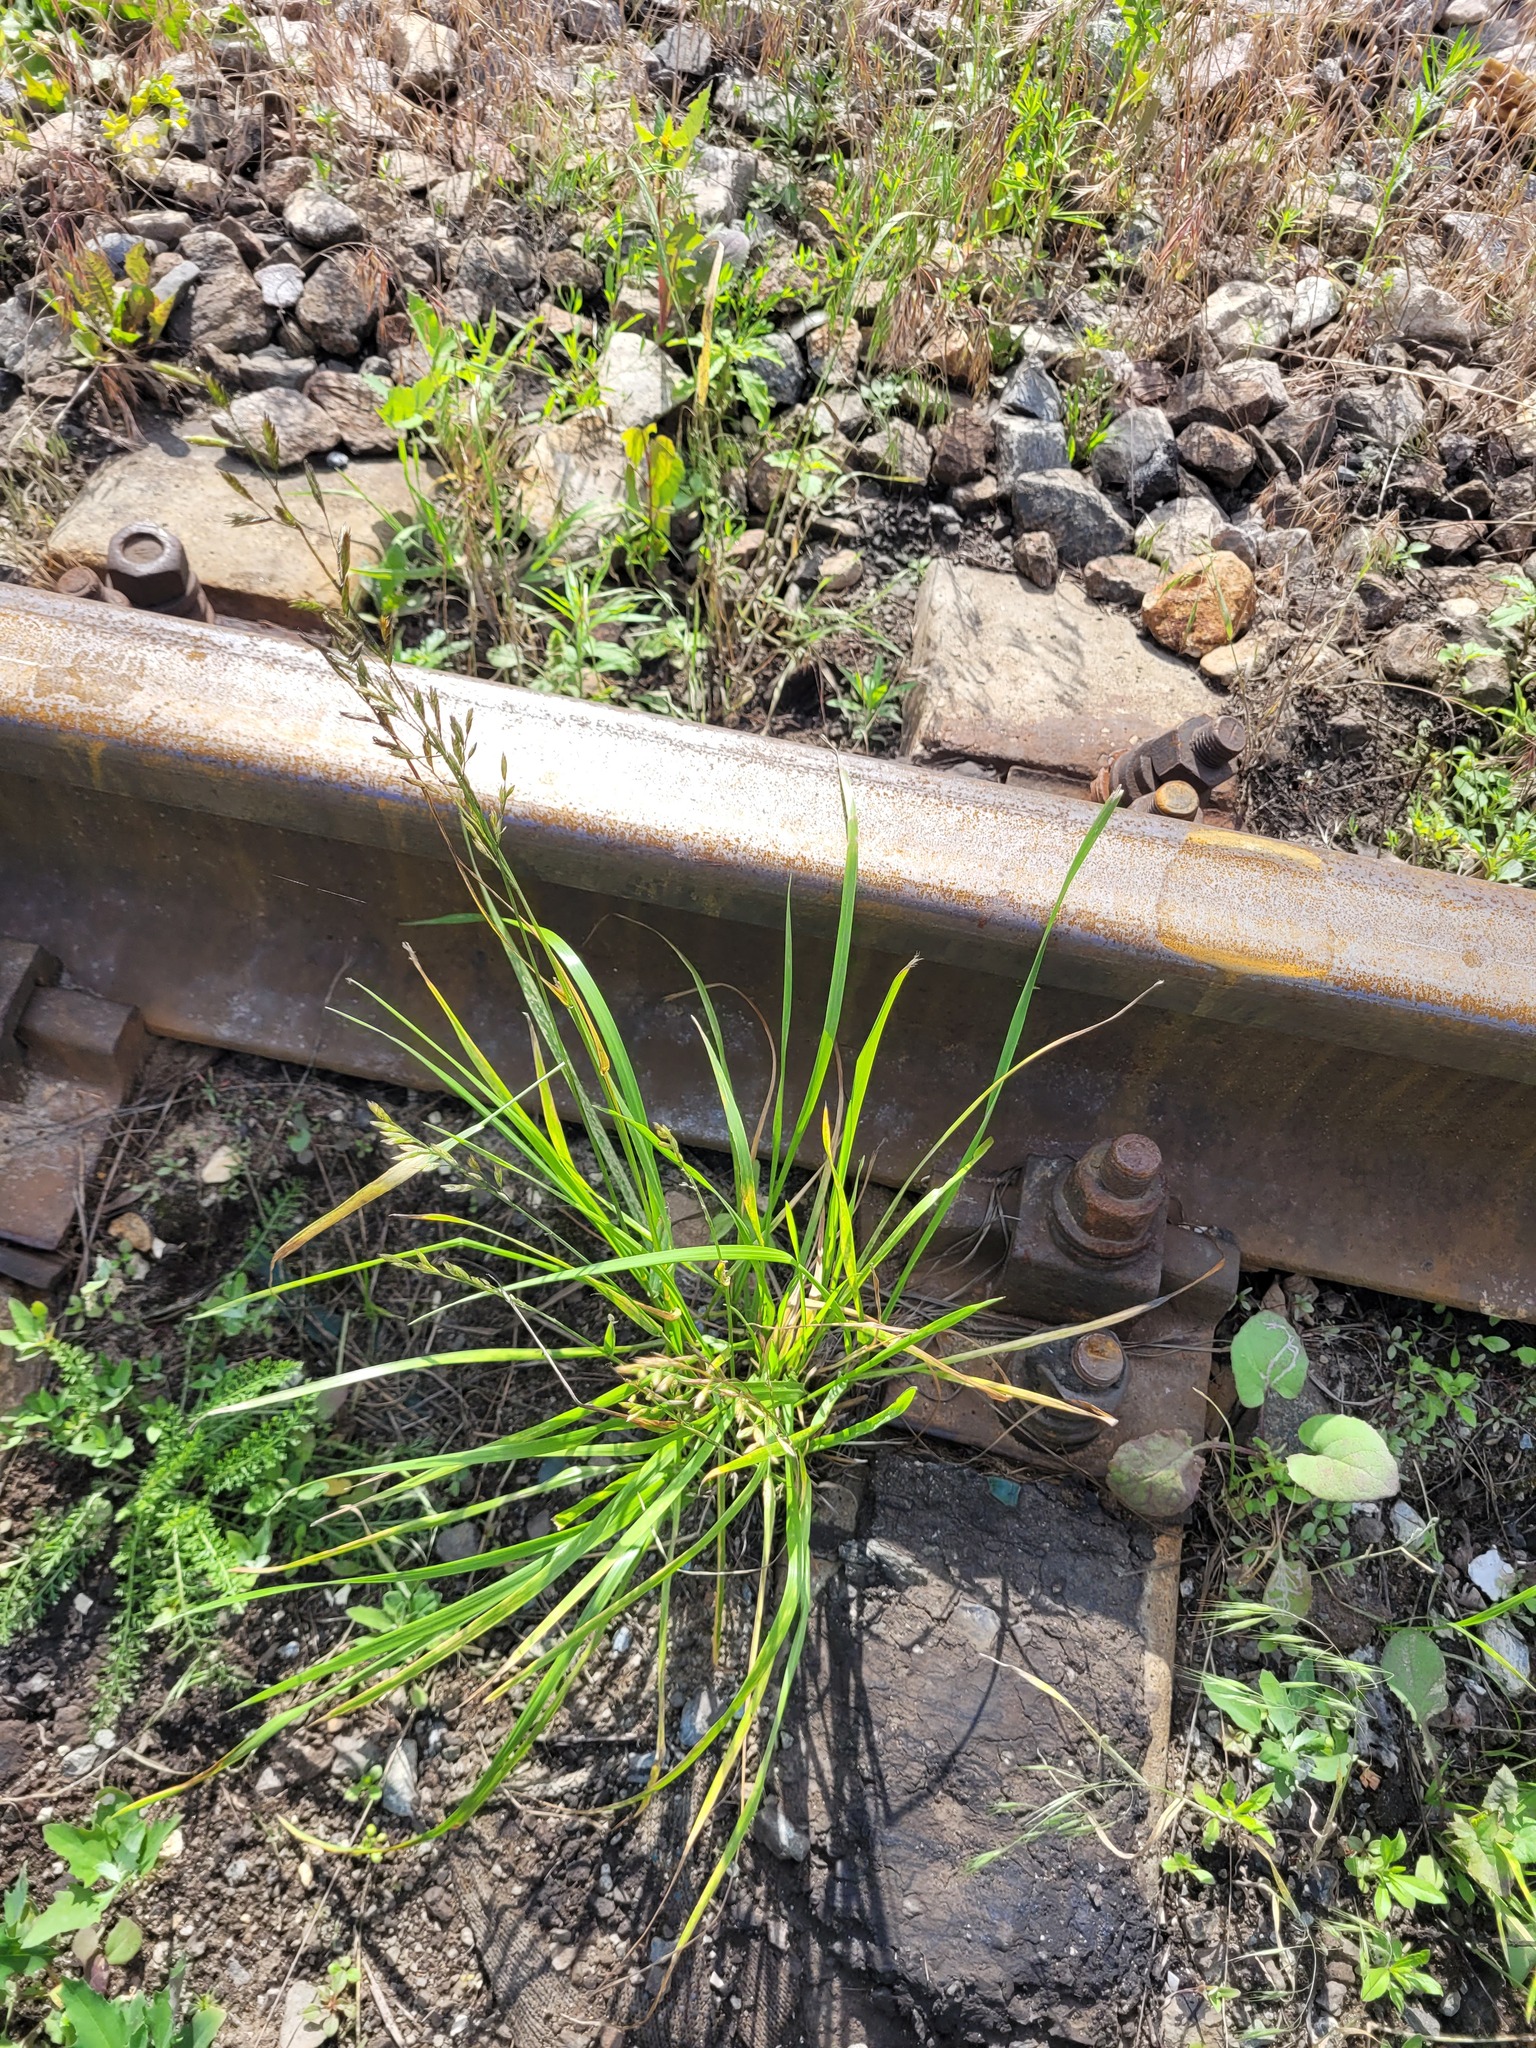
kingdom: Plantae
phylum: Tracheophyta
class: Liliopsida
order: Poales
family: Poaceae
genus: Lolium
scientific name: Lolium pratense
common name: Dover grass
